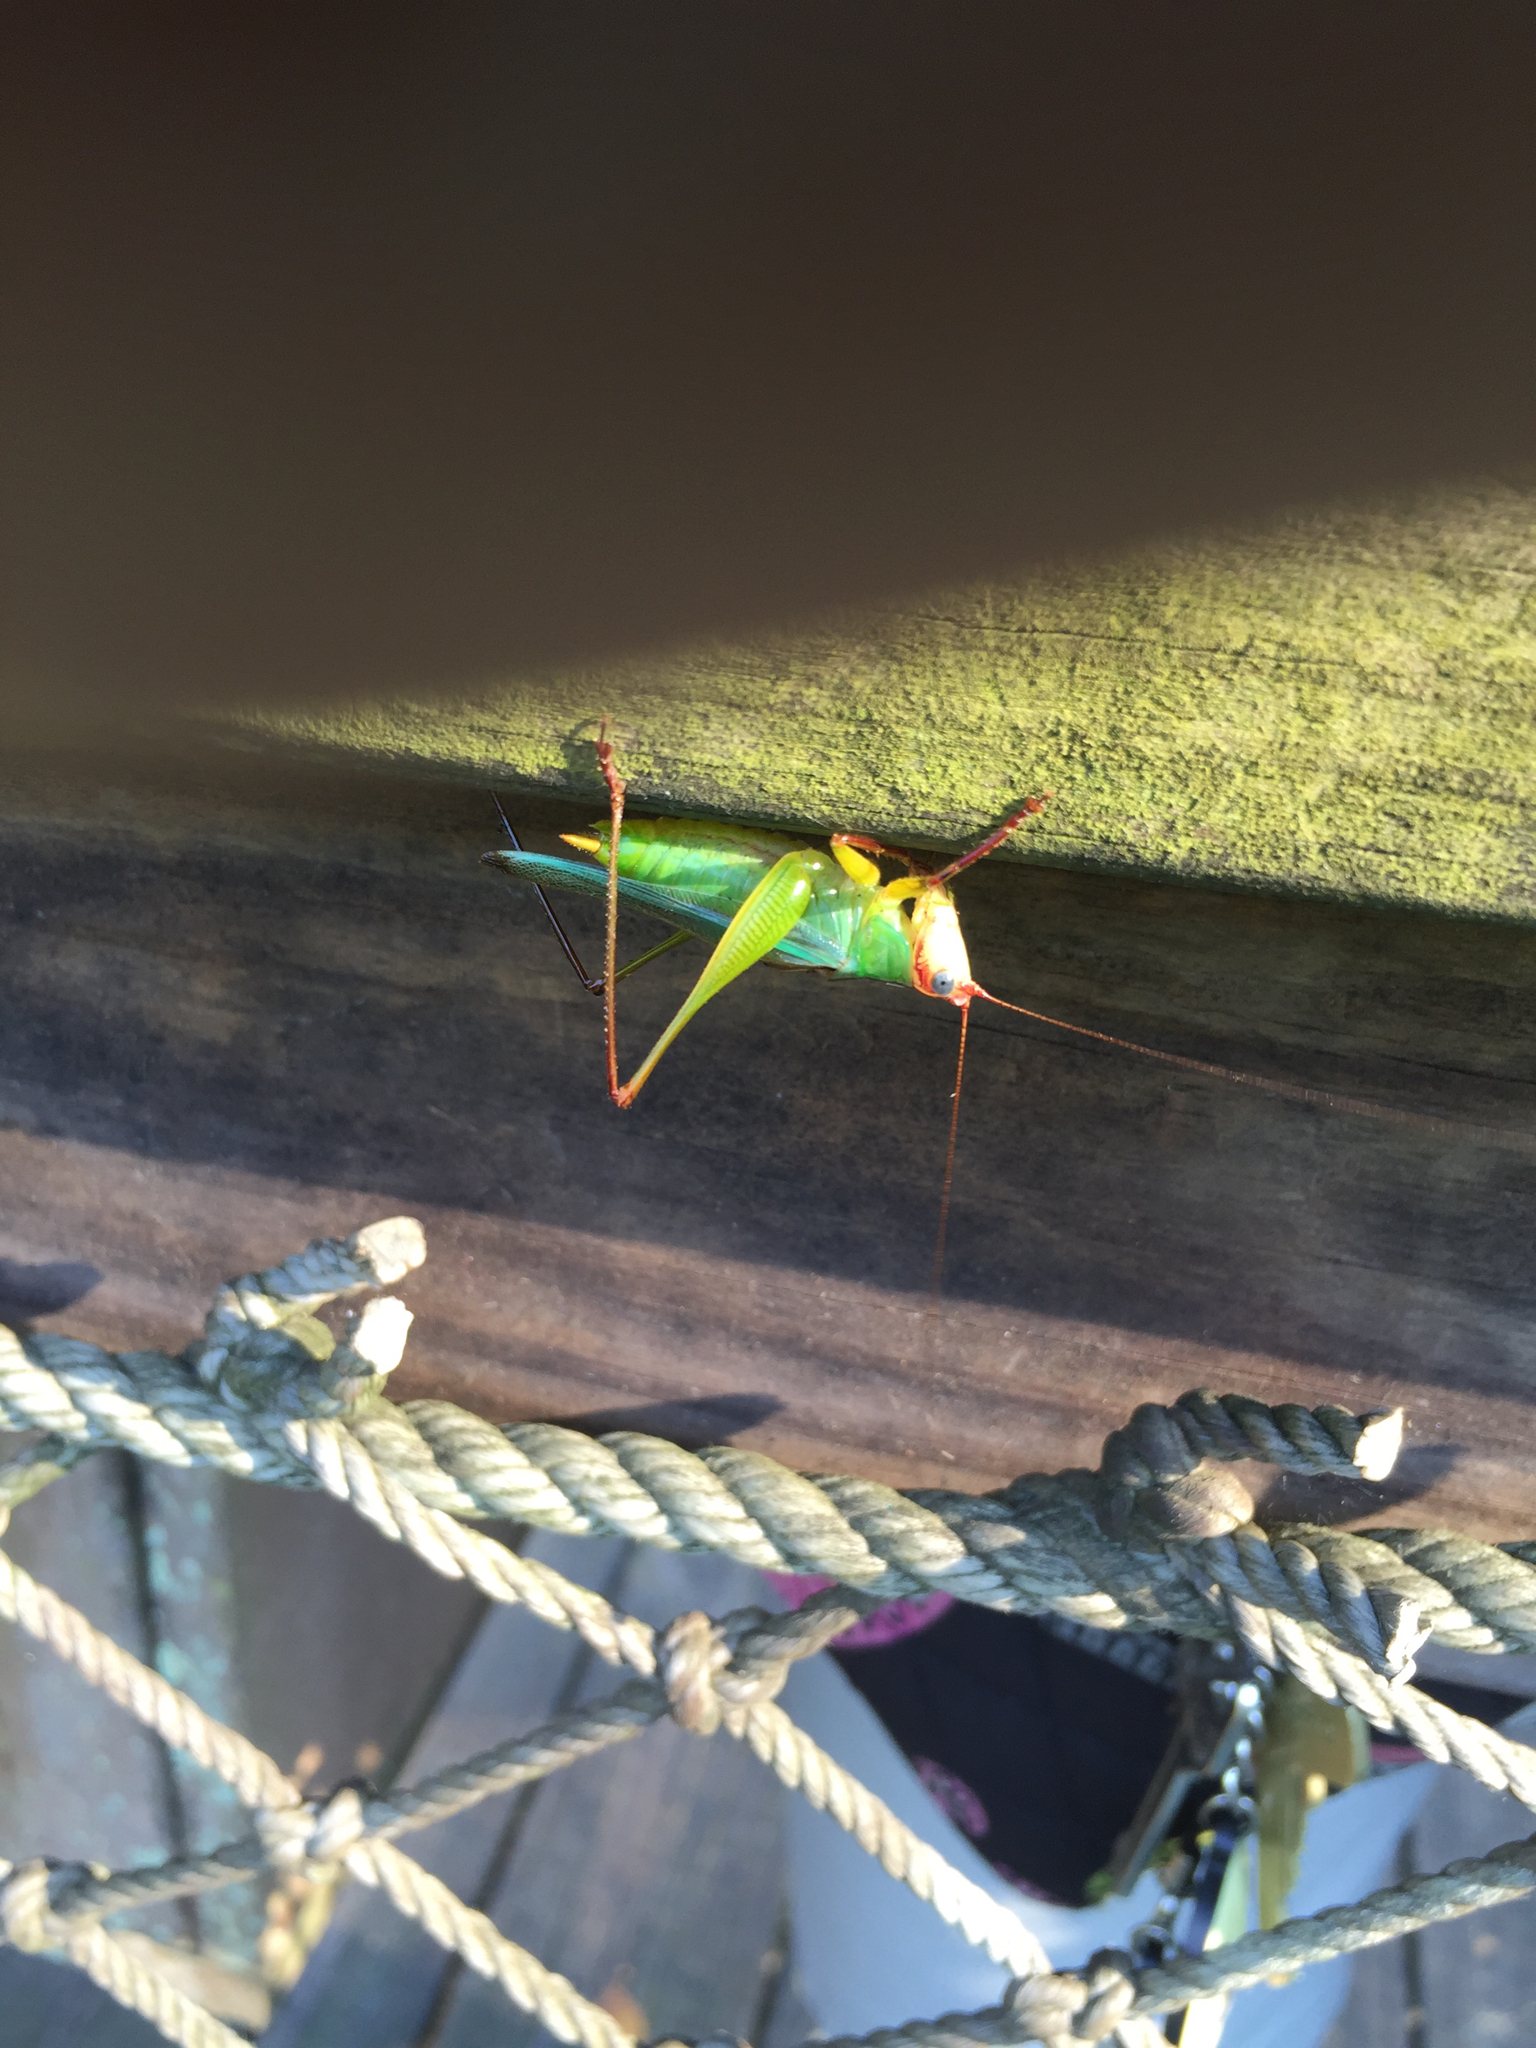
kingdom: Animalia
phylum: Arthropoda
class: Insecta
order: Orthoptera
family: Tettigoniidae
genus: Orchelimum
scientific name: Orchelimum pulchellum
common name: Handsome meadow katydid
